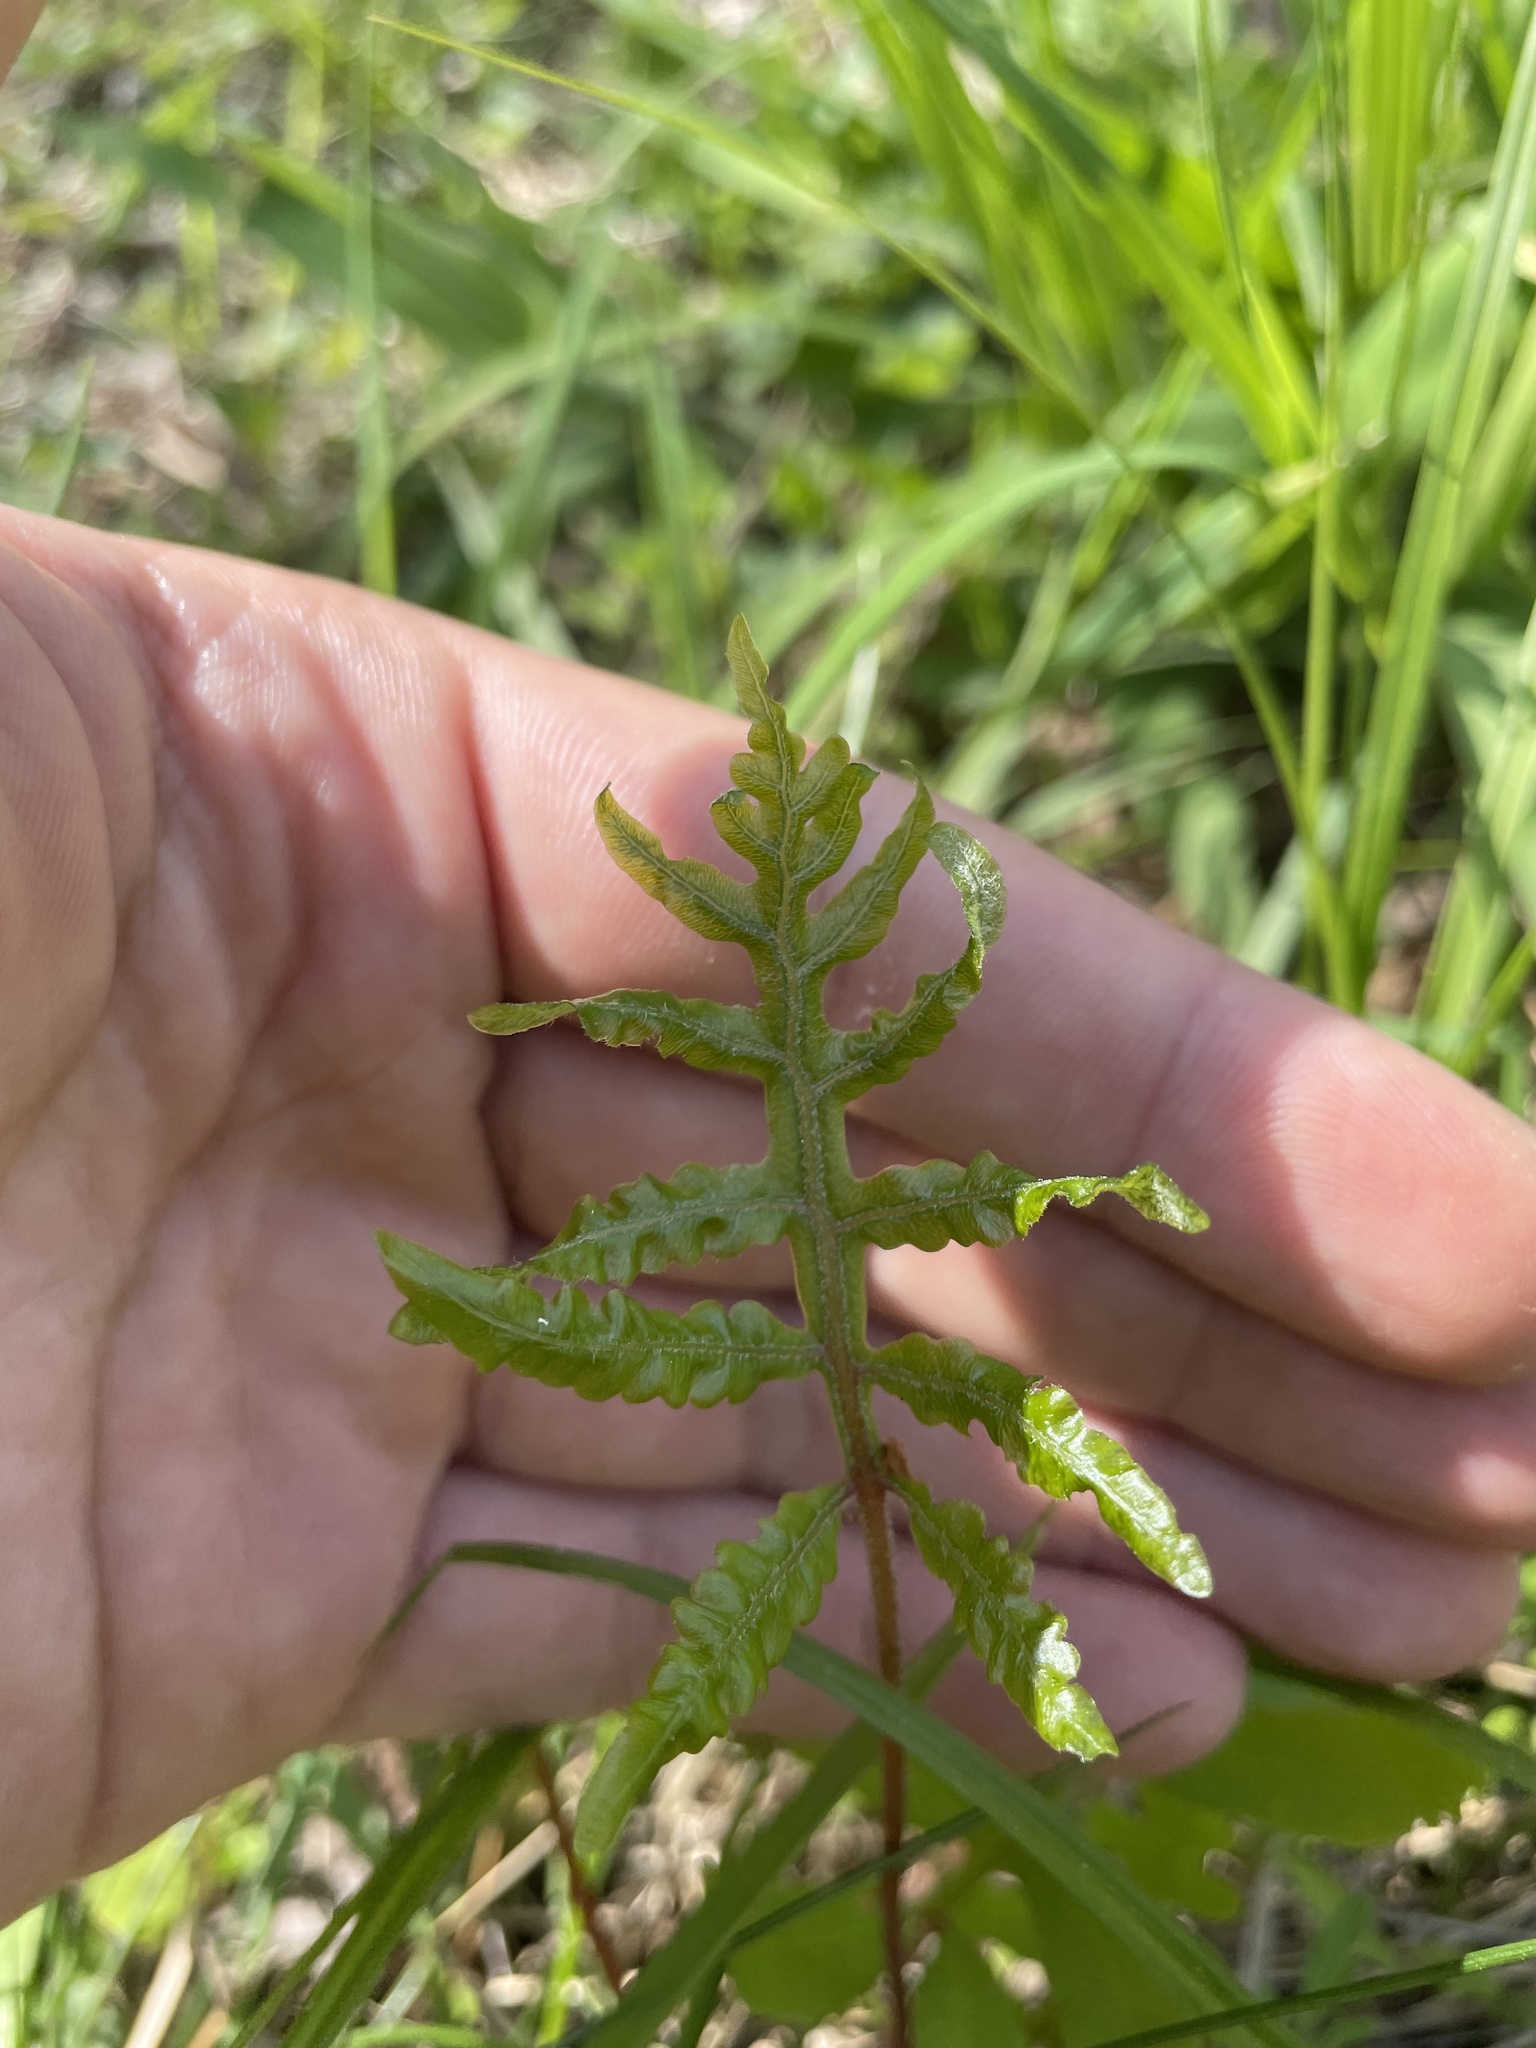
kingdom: Plantae
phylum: Tracheophyta
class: Polypodiopsida
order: Polypodiales
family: Onocleaceae
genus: Onoclea
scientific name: Onoclea sensibilis
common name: Sensitive fern
